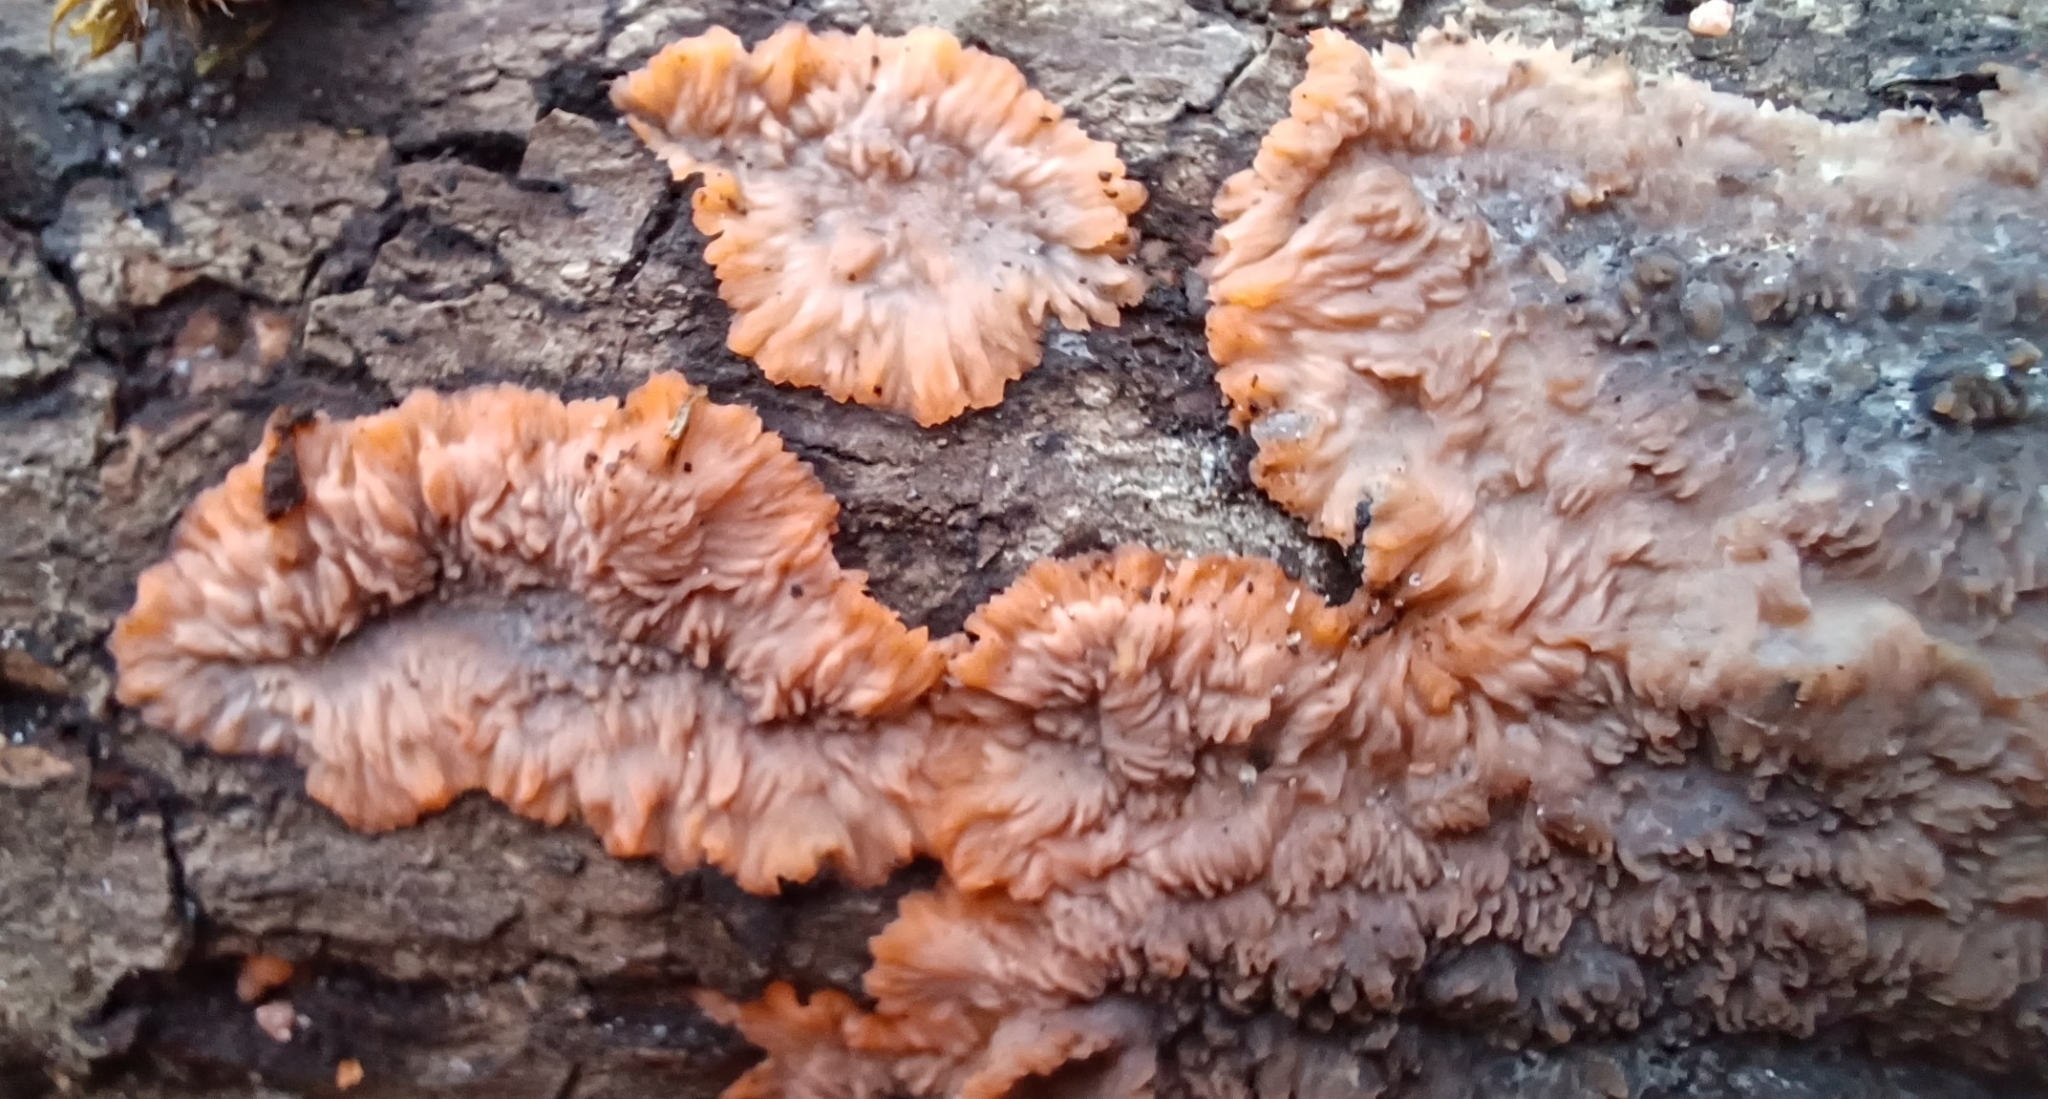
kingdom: Fungi
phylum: Basidiomycota
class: Agaricomycetes
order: Polyporales
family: Meruliaceae
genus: Phlebia
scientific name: Phlebia radiata
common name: Wrinkled crust
